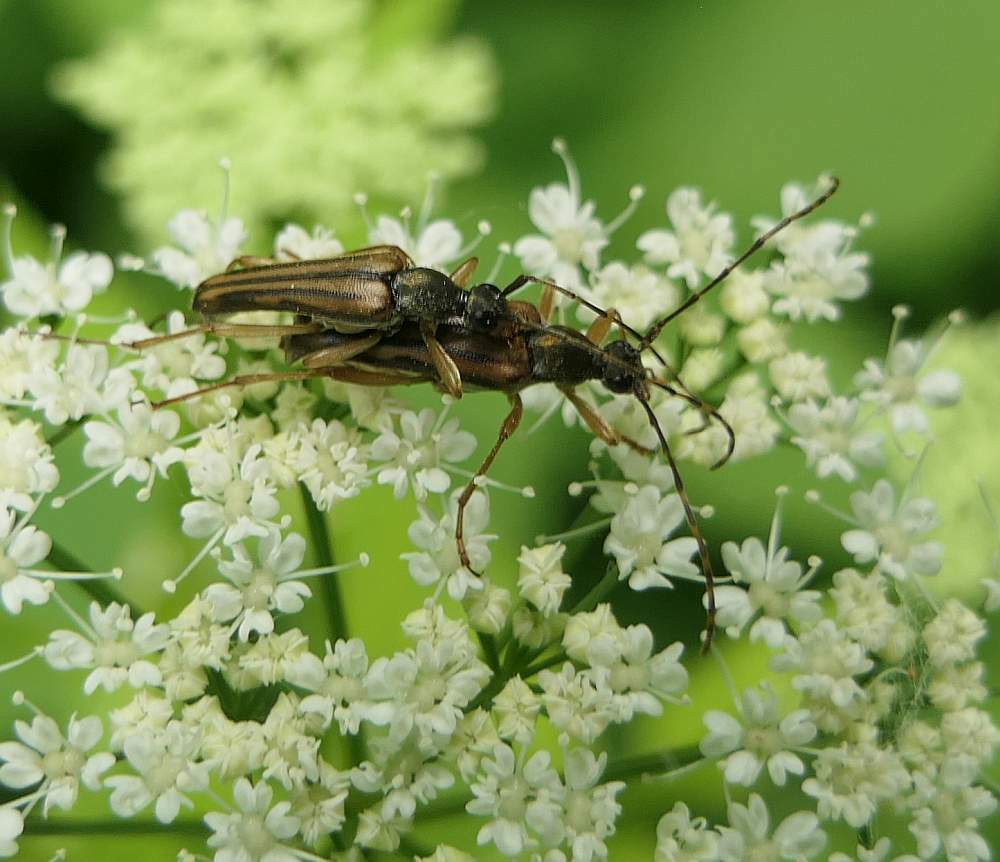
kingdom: Animalia
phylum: Arthropoda
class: Insecta
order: Coleoptera
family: Cerambycidae
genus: Analeptura
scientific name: Analeptura lineola
